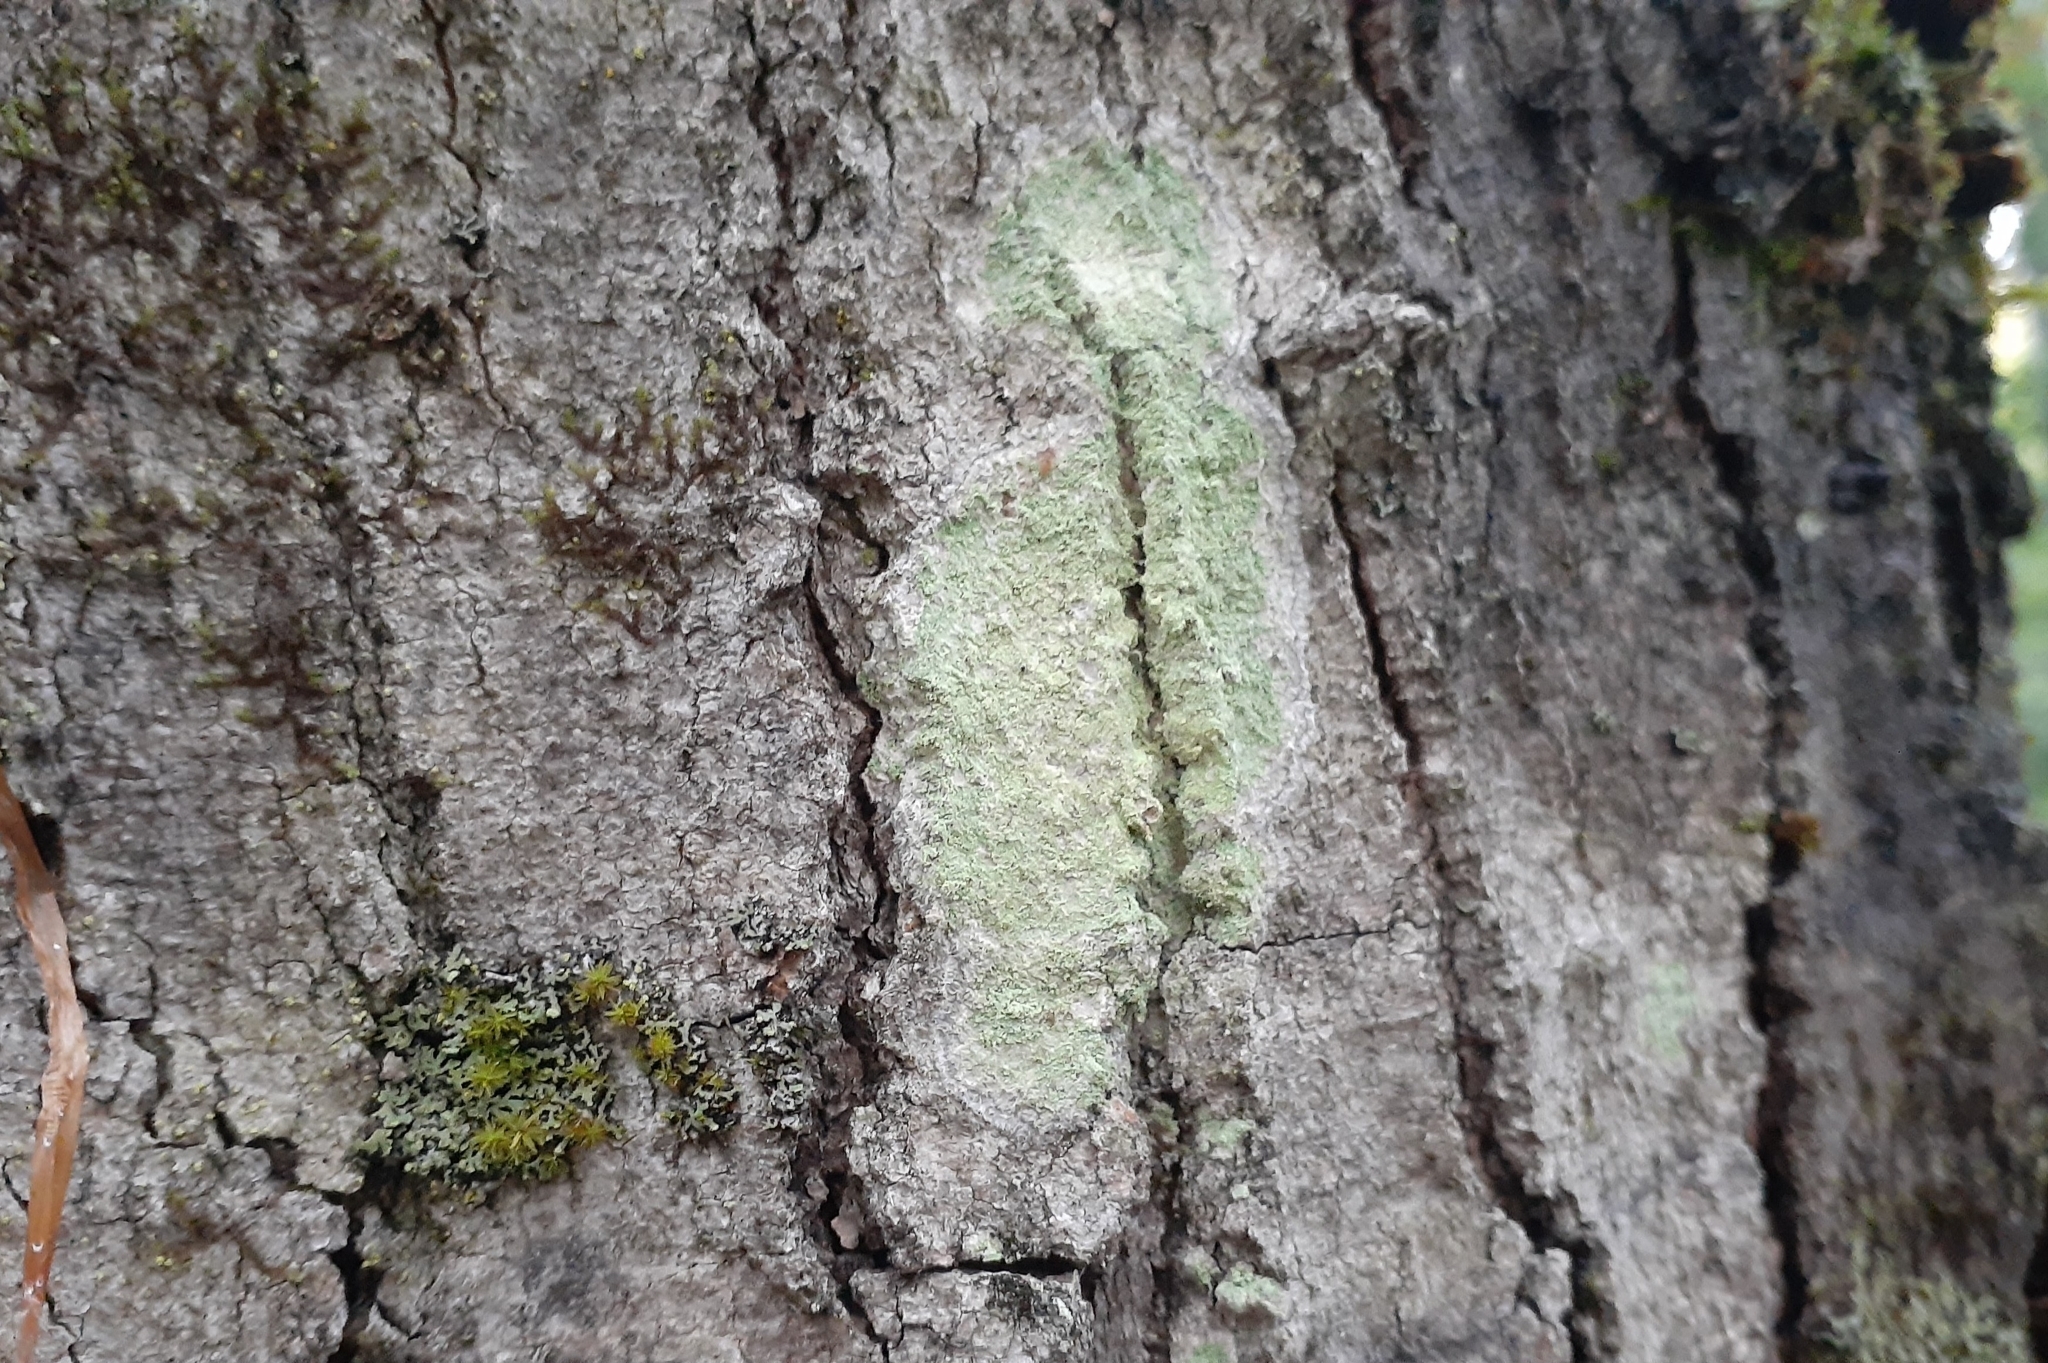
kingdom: Fungi
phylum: Ascomycota
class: Lecanoromycetes
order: Pertusariales
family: Pertusariaceae
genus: Verseghya
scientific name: Verseghya thysanophora
